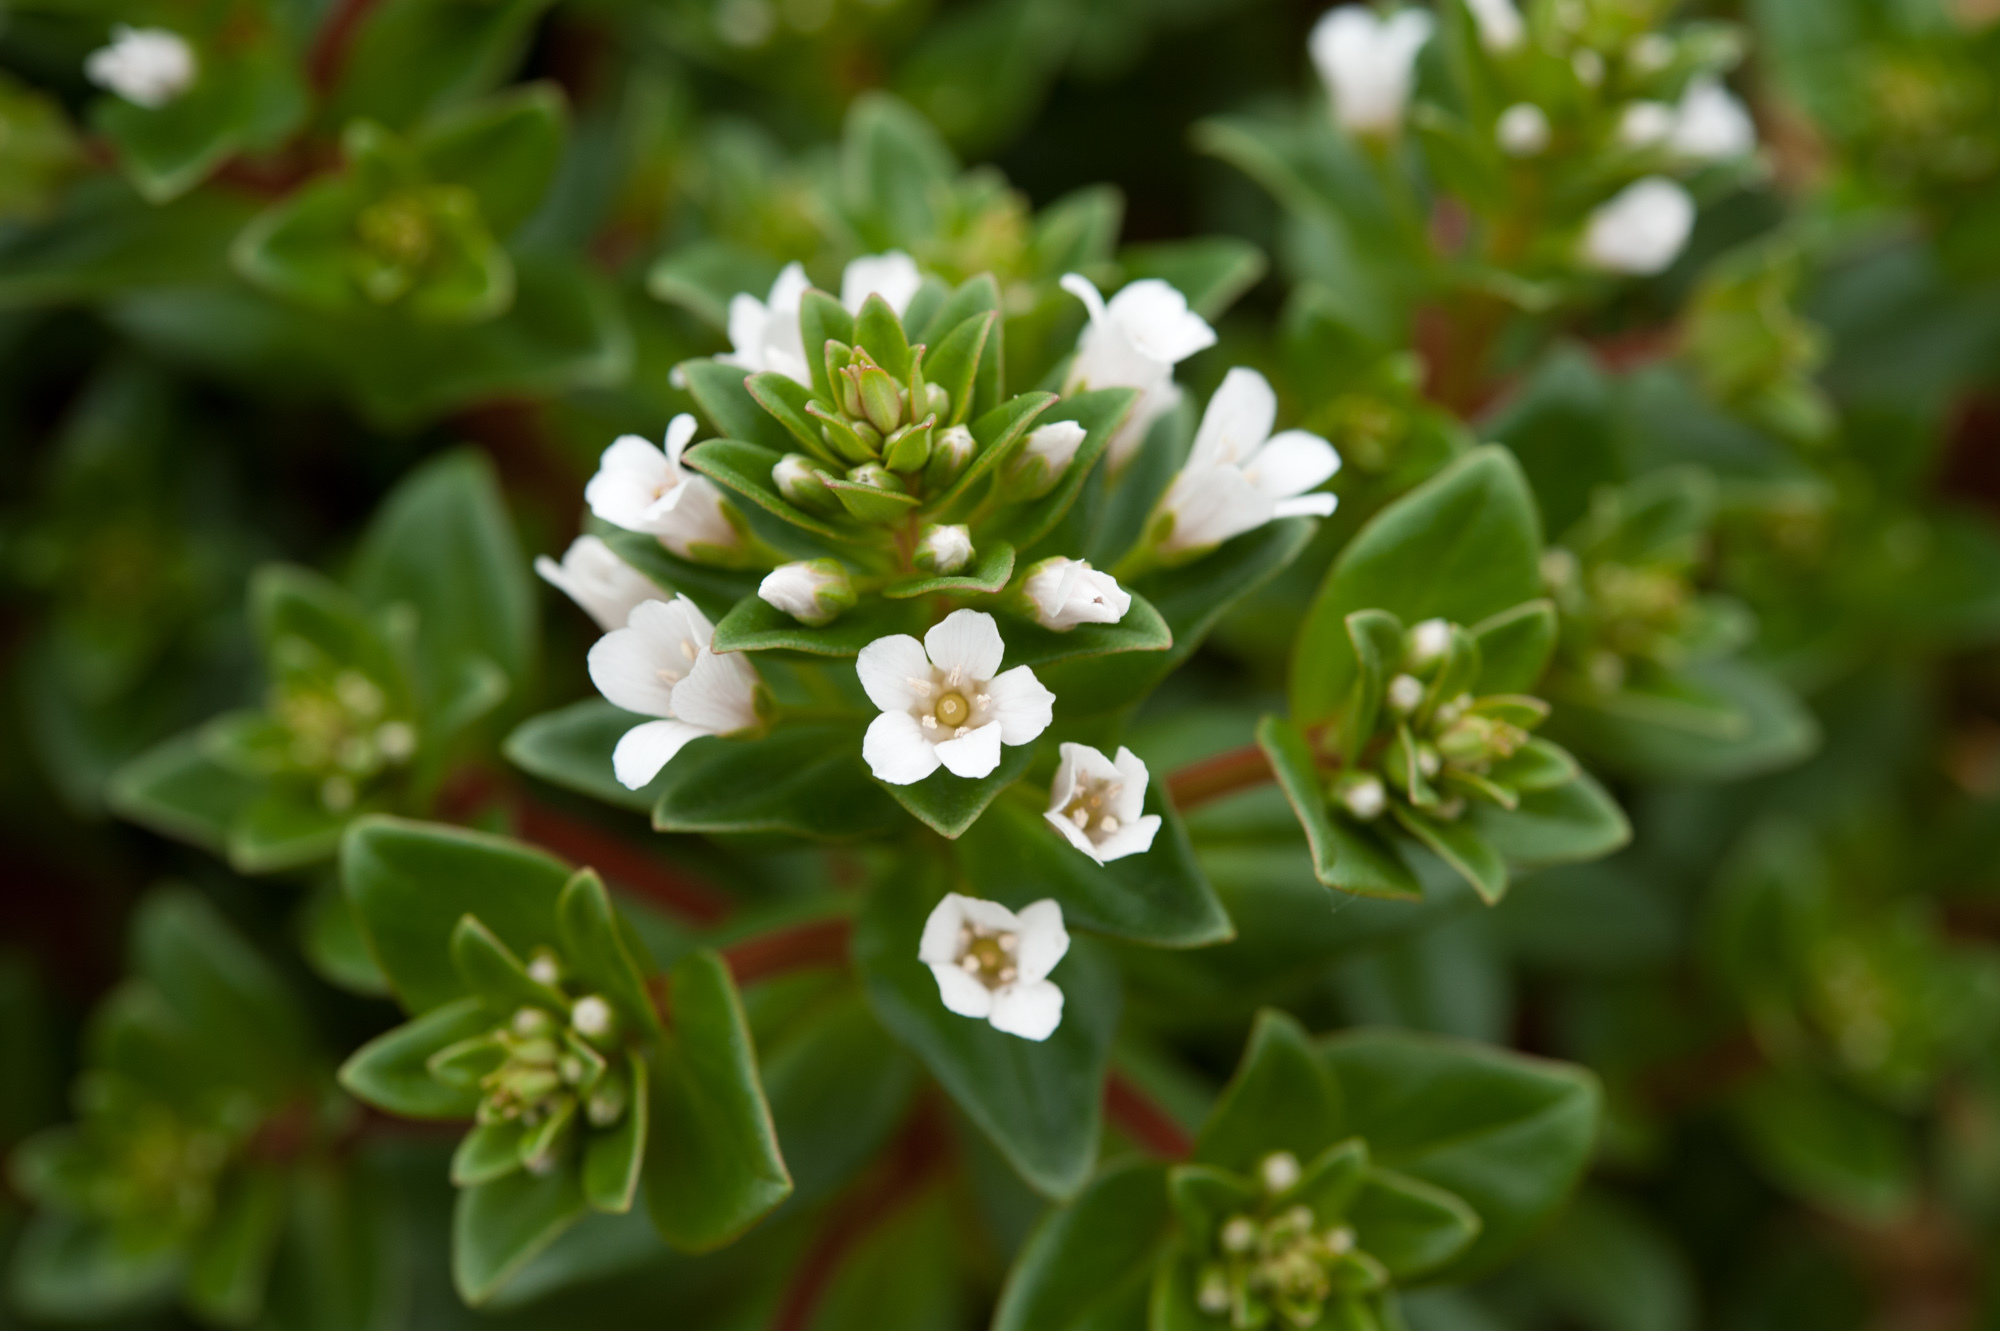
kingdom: Plantae
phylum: Tracheophyta
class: Magnoliopsida
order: Ericales
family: Primulaceae
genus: Lysimachia
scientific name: Lysimachia mauritiana
